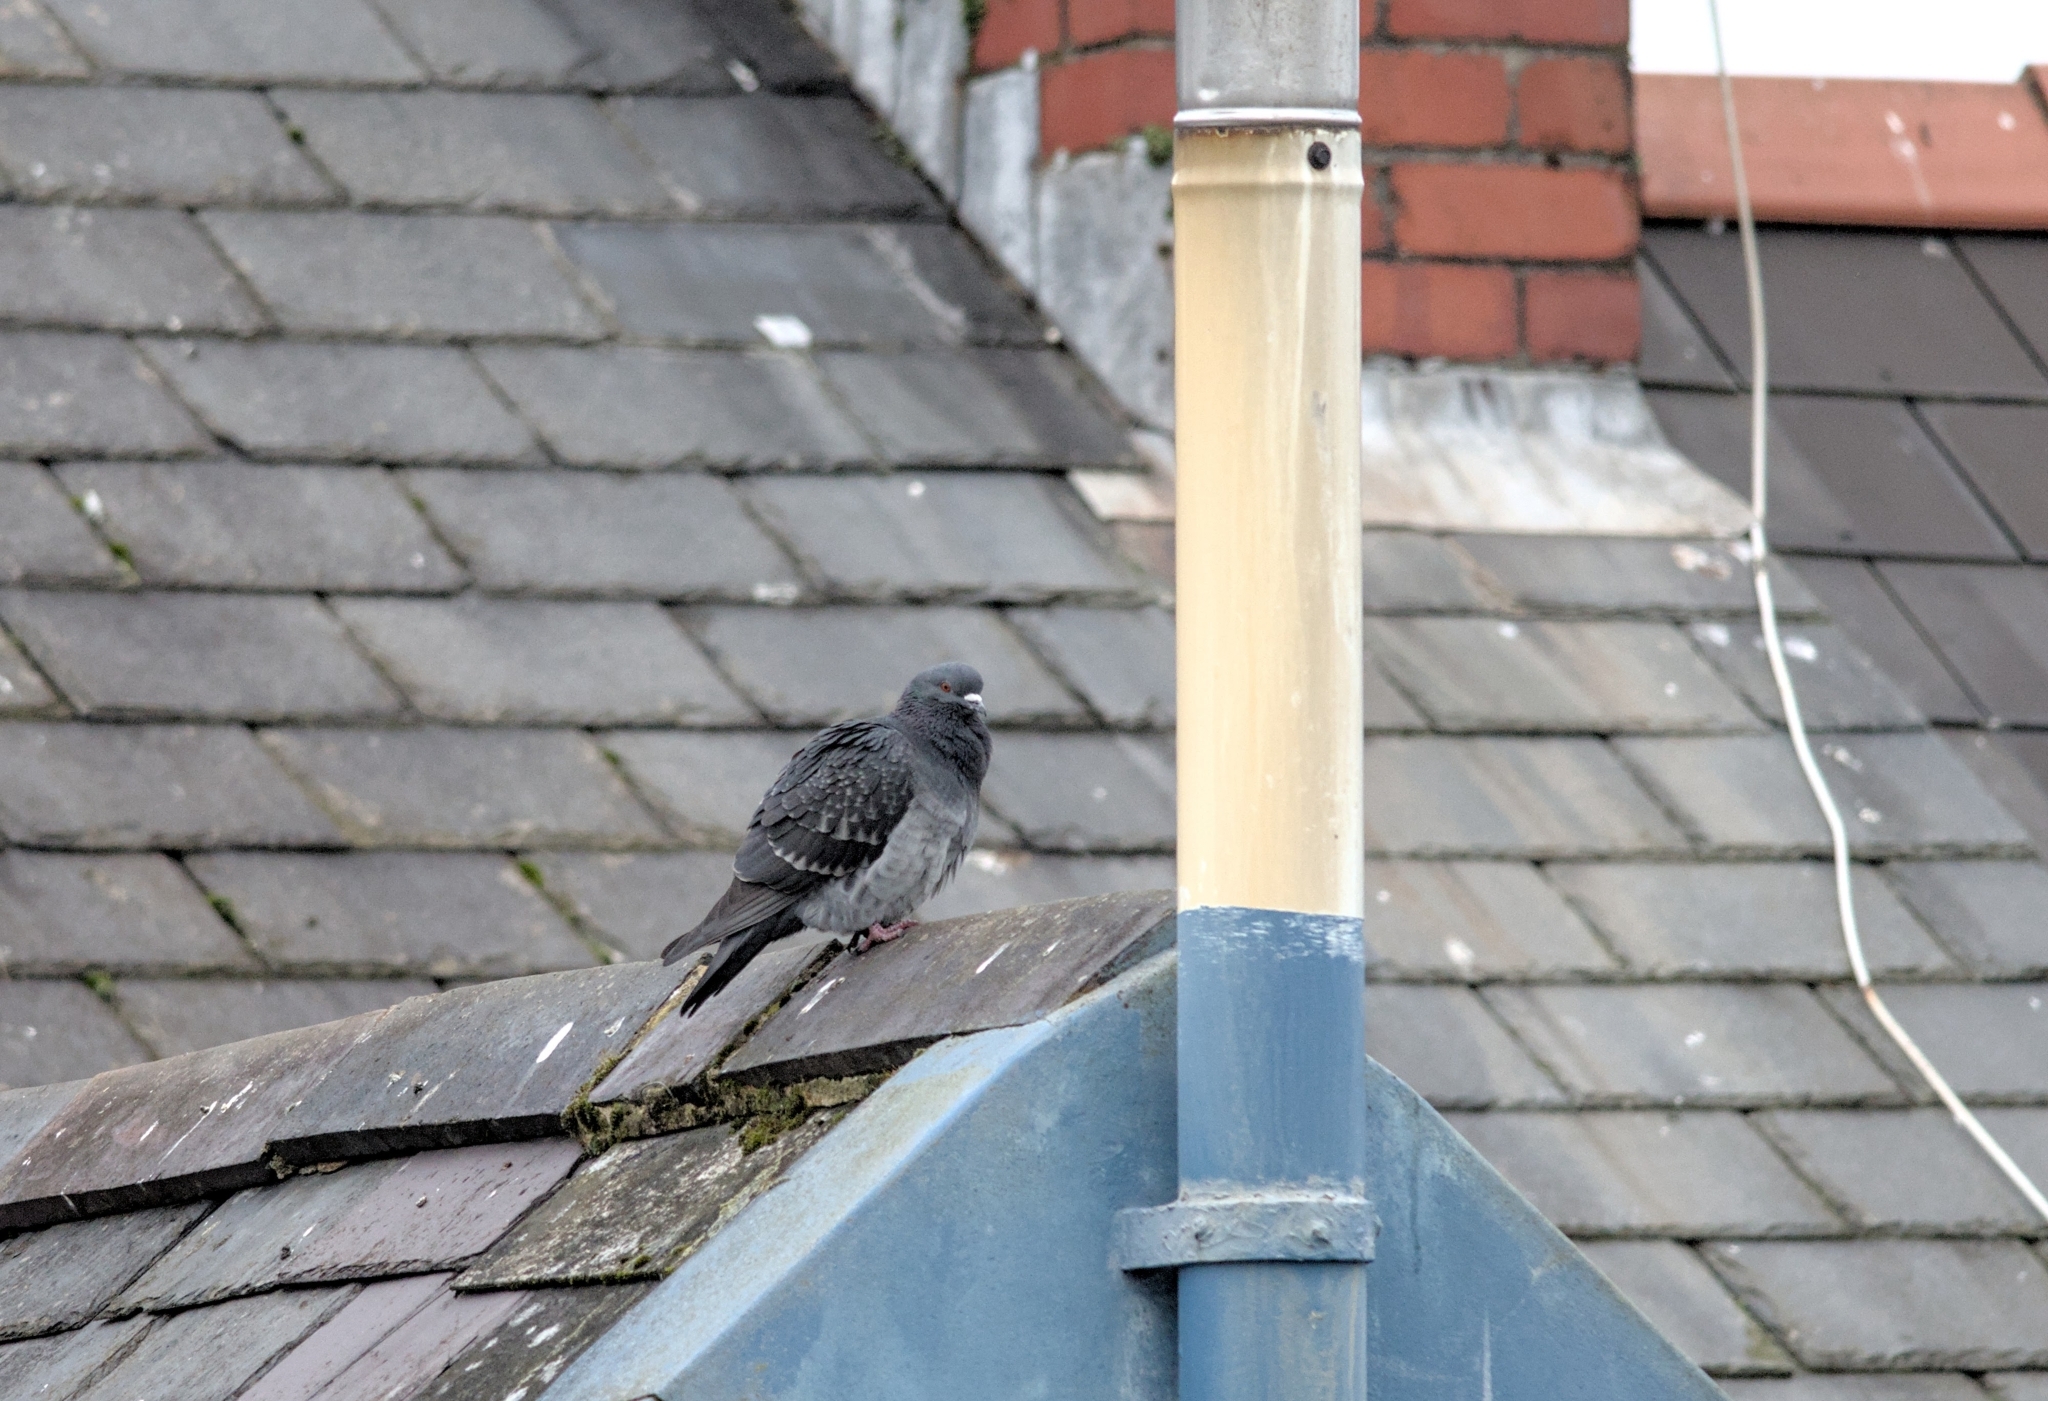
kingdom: Animalia
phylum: Chordata
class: Aves
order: Columbiformes
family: Columbidae
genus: Columba
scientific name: Columba livia
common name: Rock pigeon
